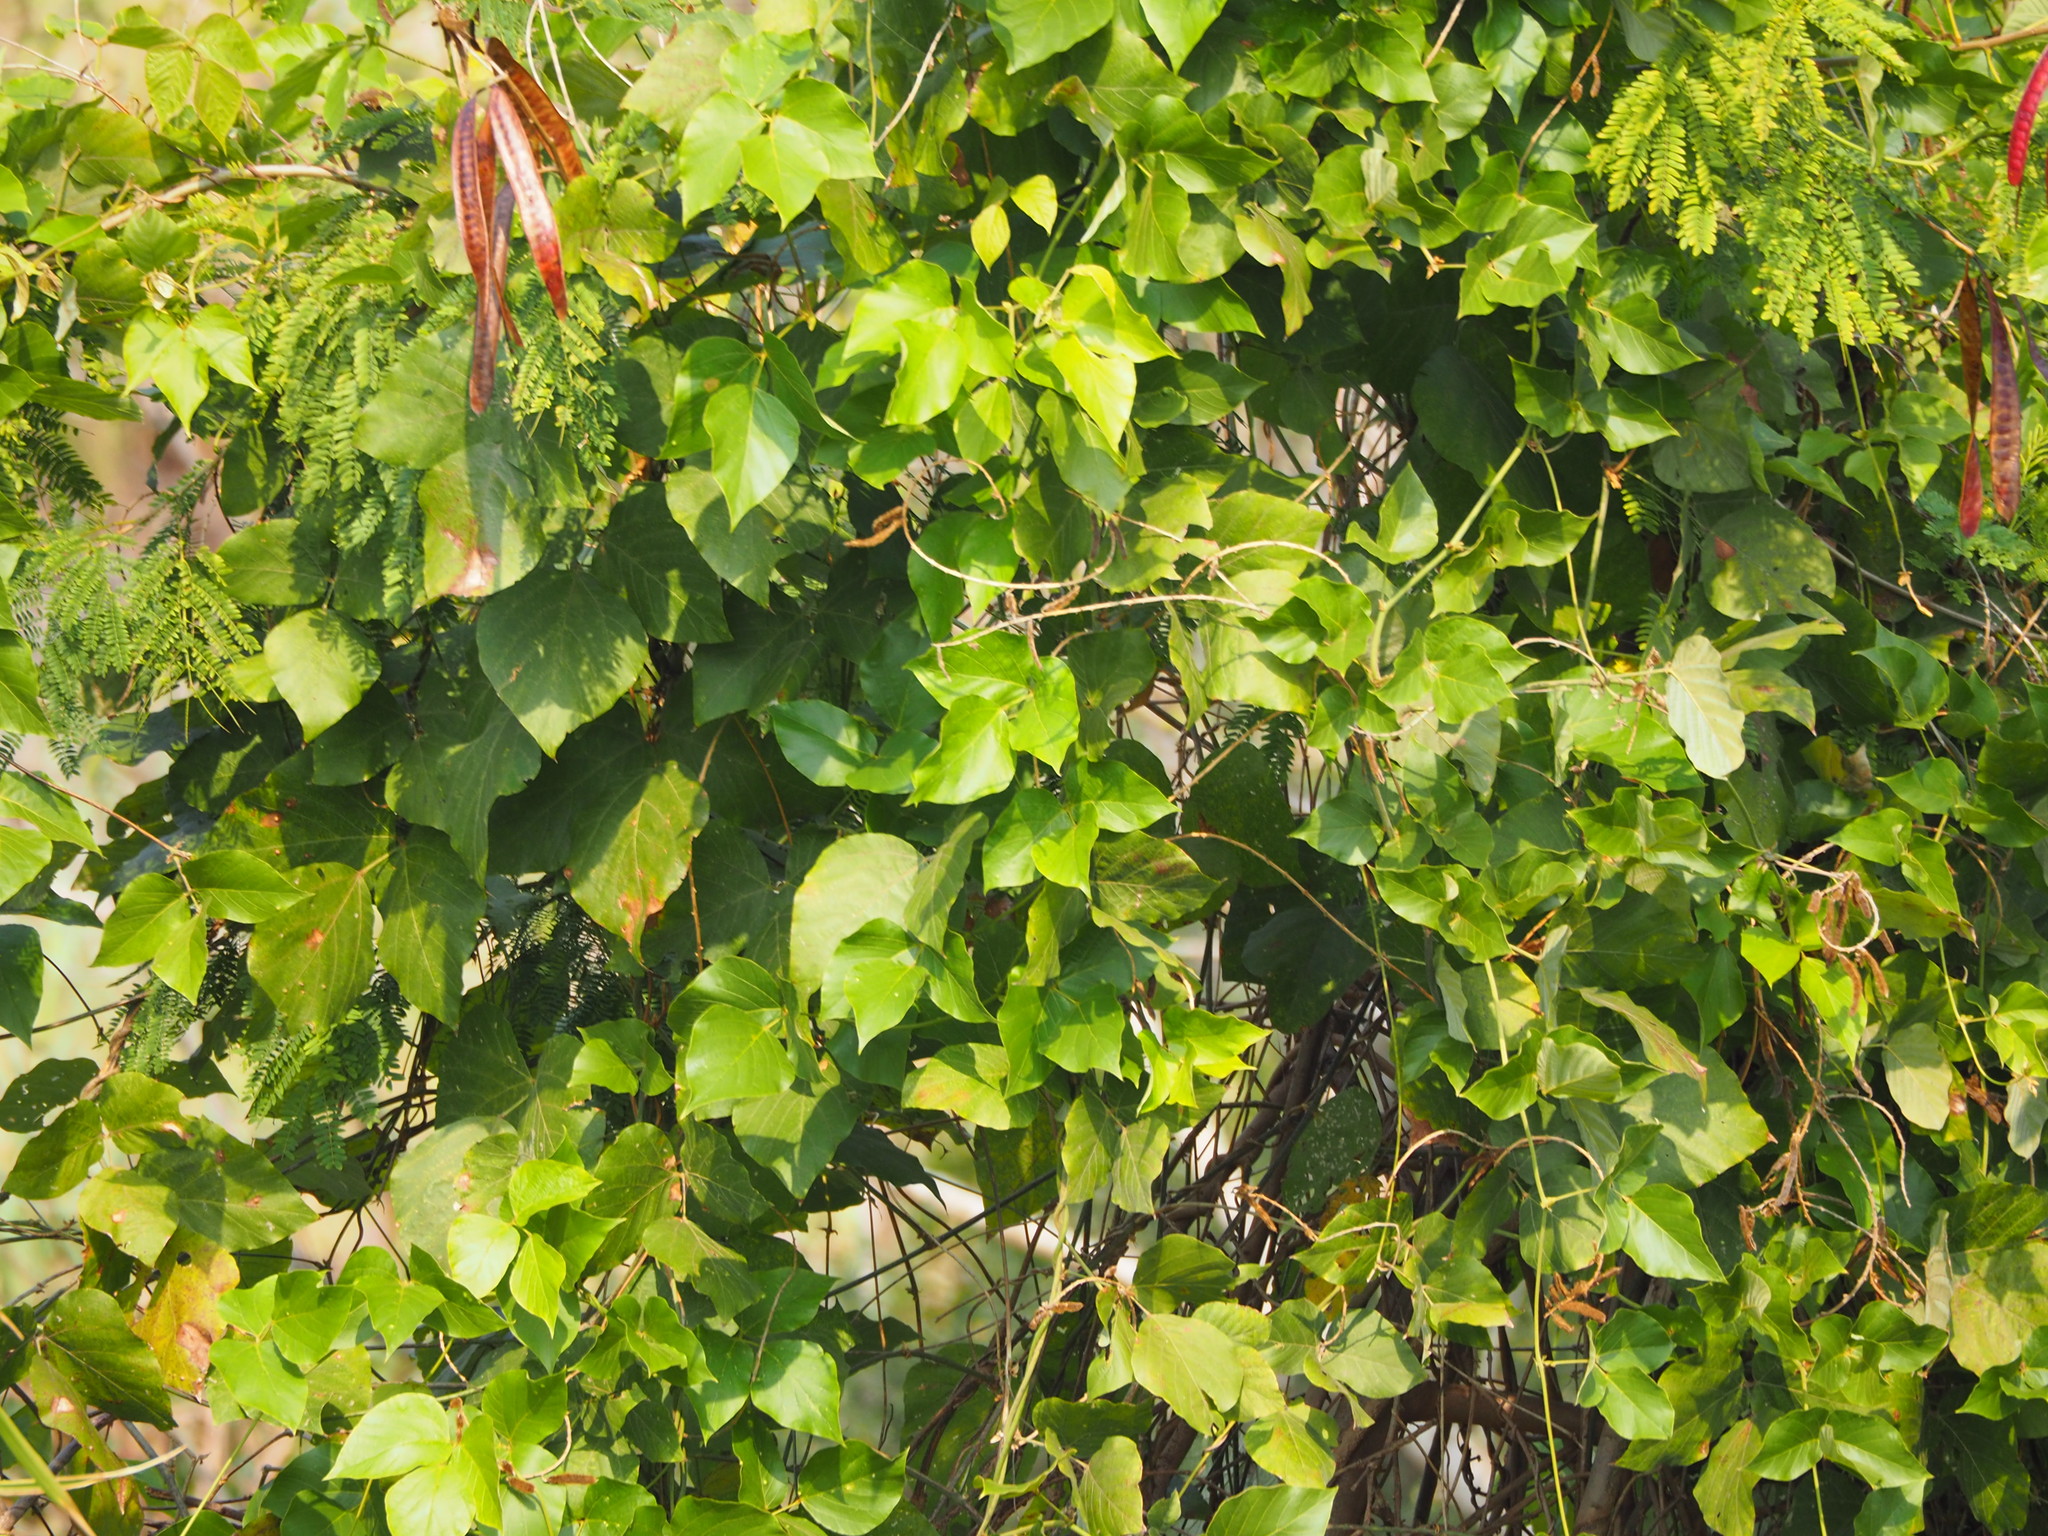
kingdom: Plantae
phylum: Tracheophyta
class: Magnoliopsida
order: Fabales
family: Fabaceae
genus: Pueraria
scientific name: Pueraria montana
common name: Kudzu
